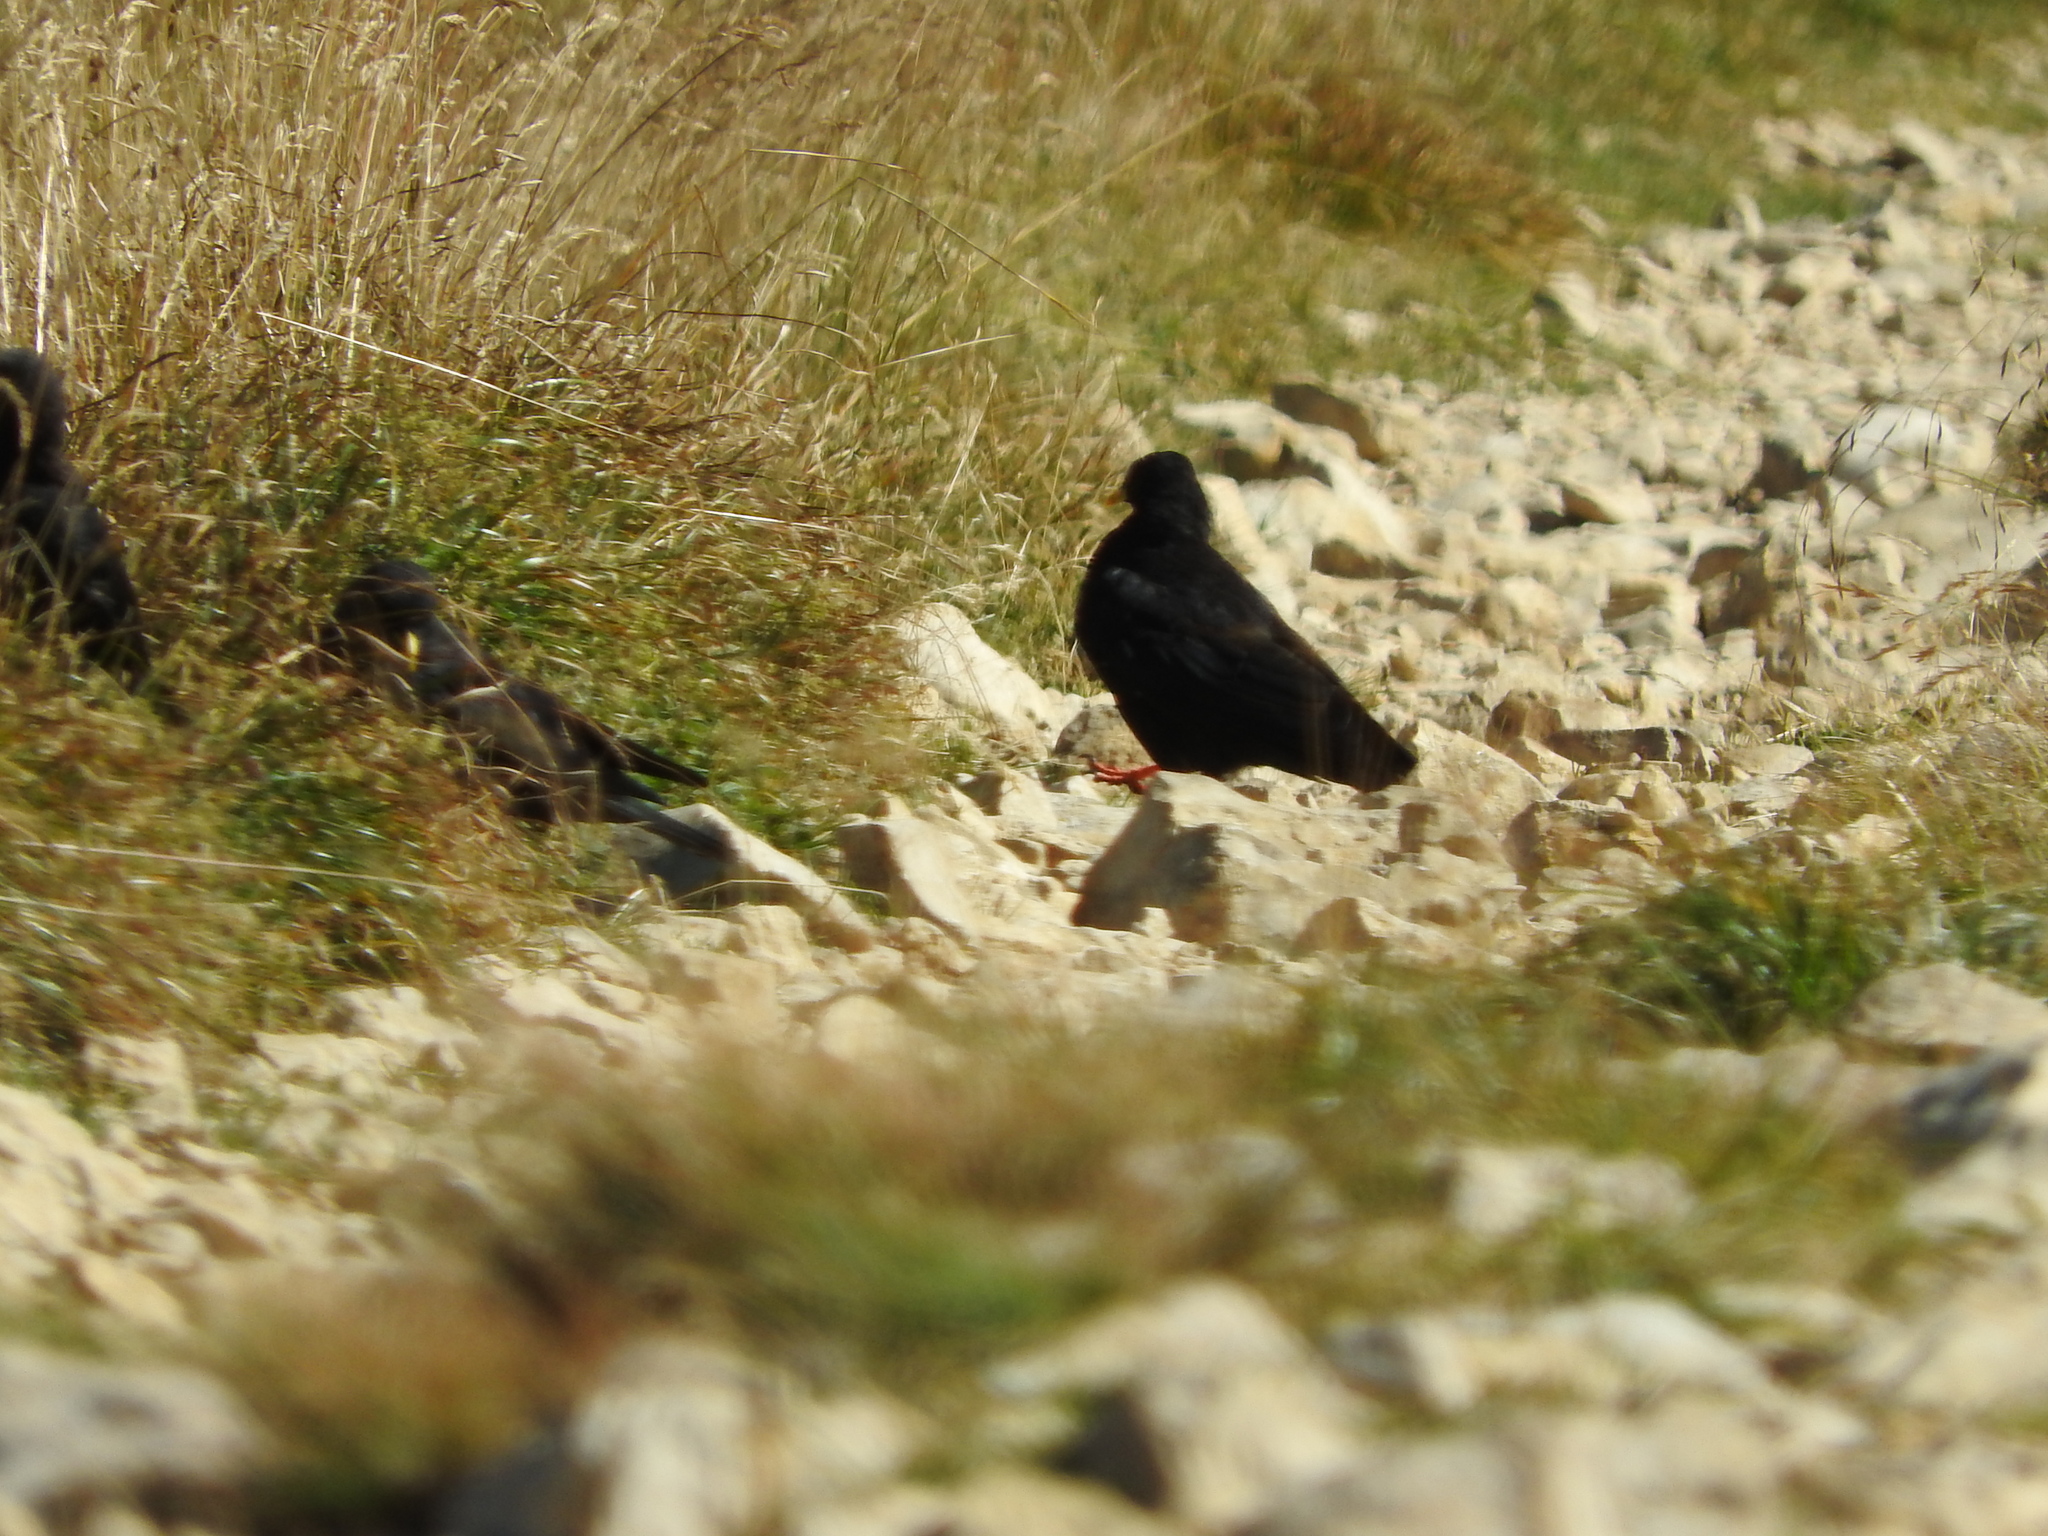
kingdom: Animalia
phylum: Chordata
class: Aves
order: Passeriformes
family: Corvidae
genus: Pyrrhocorax
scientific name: Pyrrhocorax graculus
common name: Alpine chough
